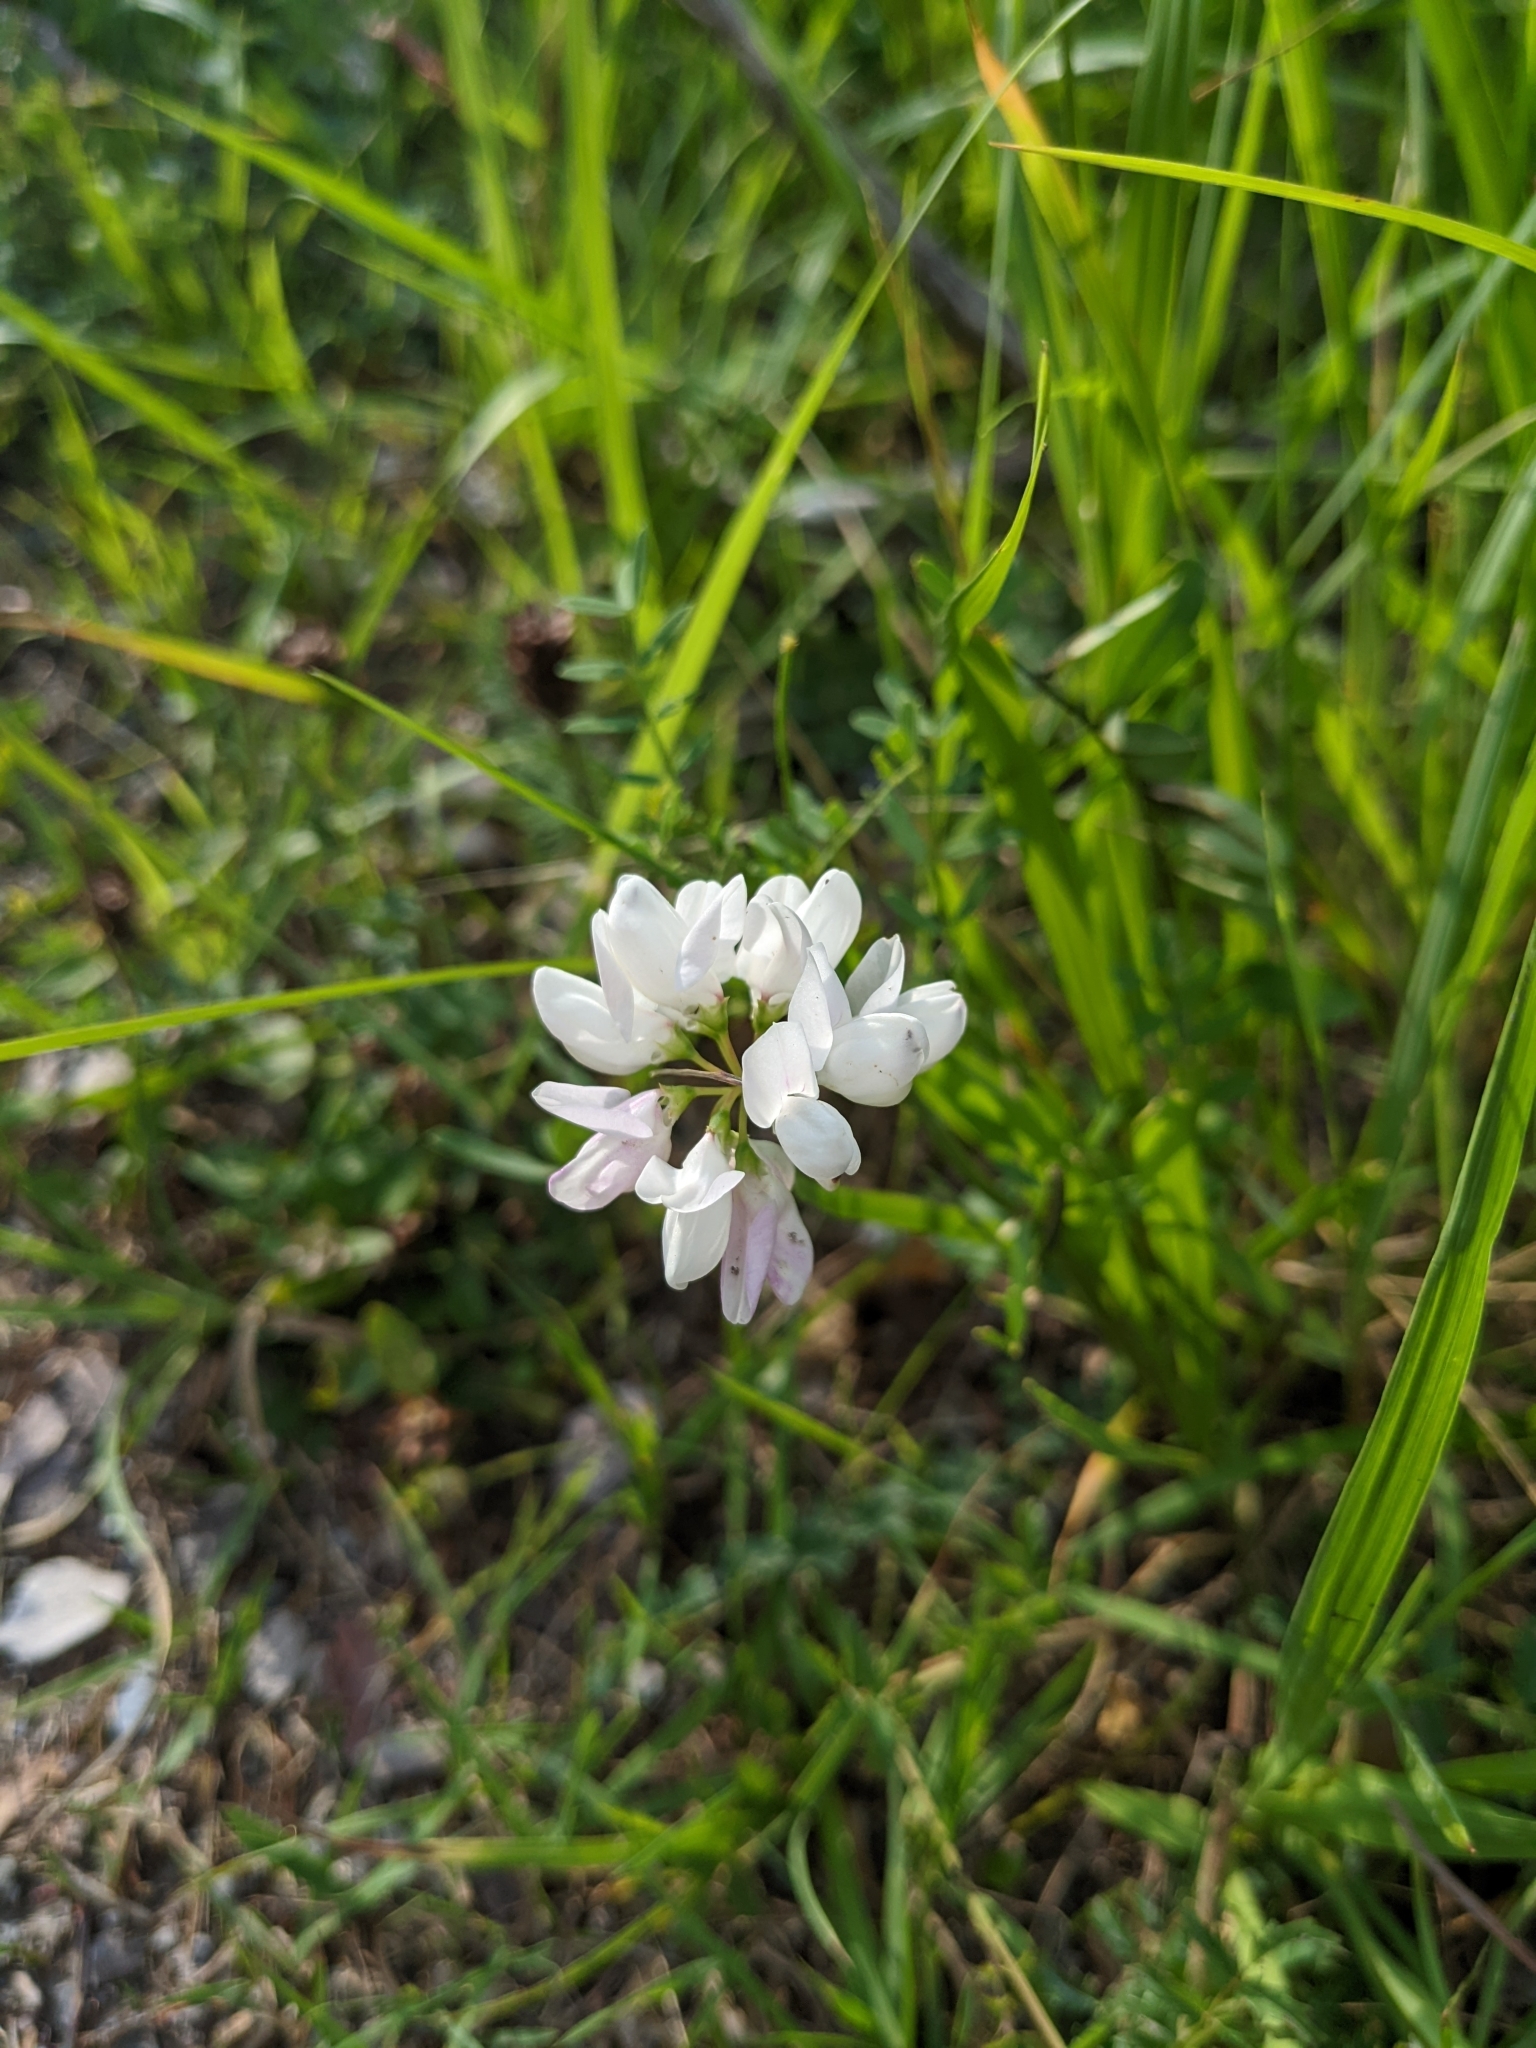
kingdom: Plantae
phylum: Tracheophyta
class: Magnoliopsida
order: Fabales
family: Fabaceae
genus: Coronilla
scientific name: Coronilla varia
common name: Crownvetch
